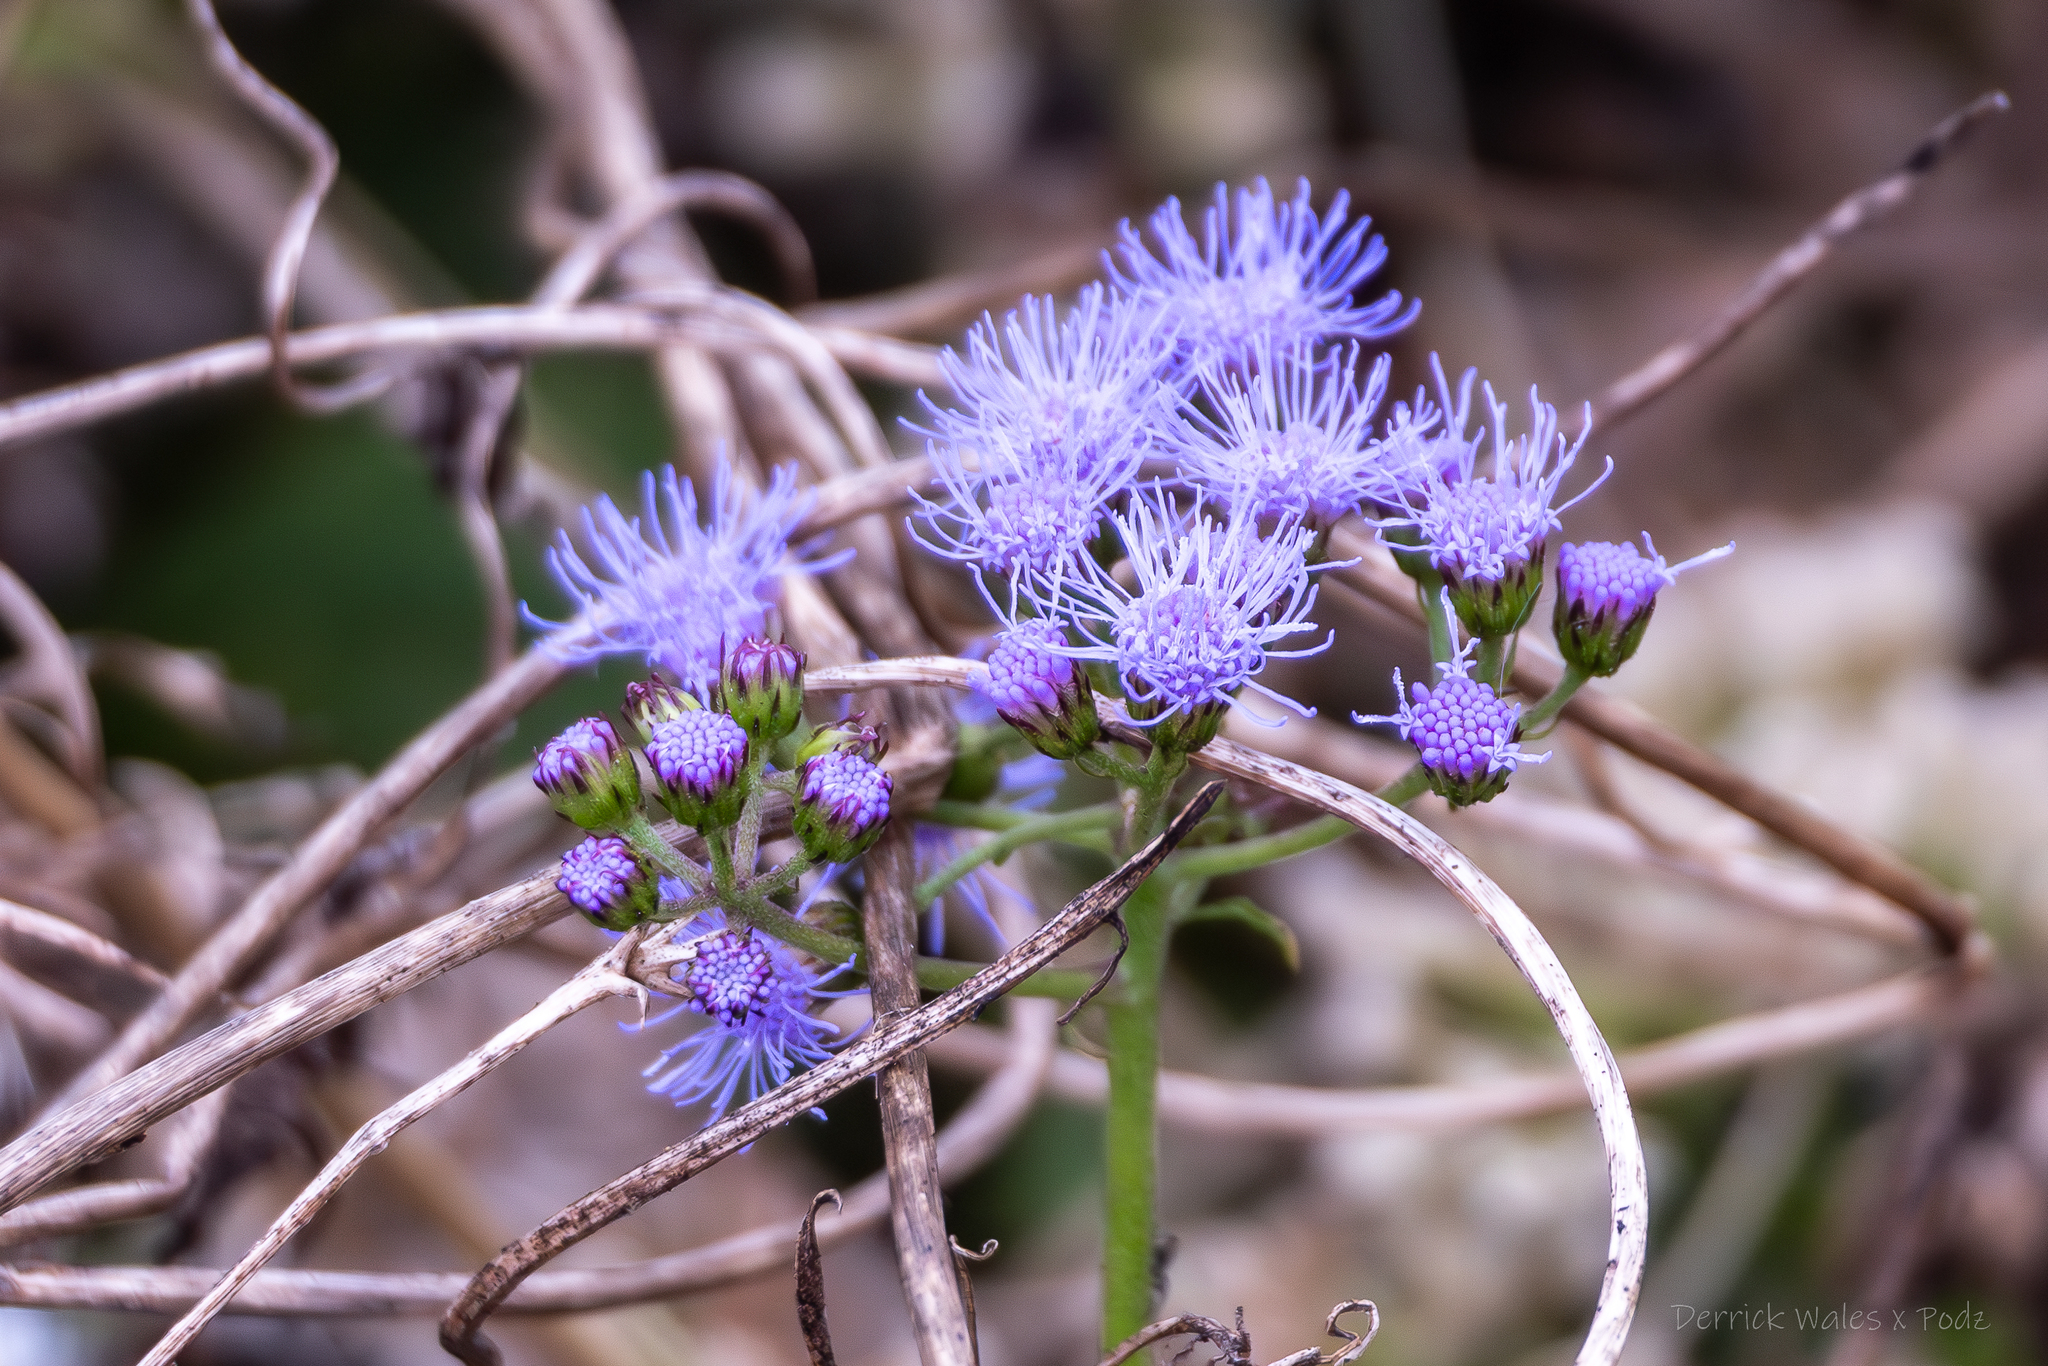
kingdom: Plantae
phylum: Tracheophyta
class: Magnoliopsida
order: Asterales
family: Asteraceae
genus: Conoclinium
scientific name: Conoclinium coelestinum
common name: Blue mistflower
